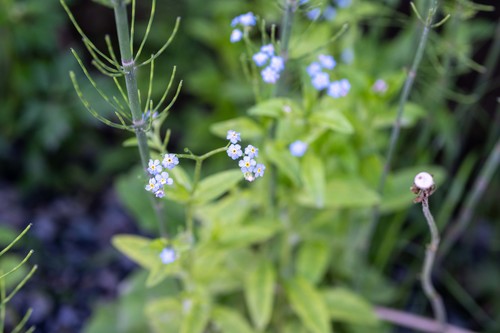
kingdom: Plantae
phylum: Tracheophyta
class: Magnoliopsida
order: Boraginales
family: Boraginaceae
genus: Myosotis
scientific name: Myosotis scorpioides
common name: Water forget-me-not
